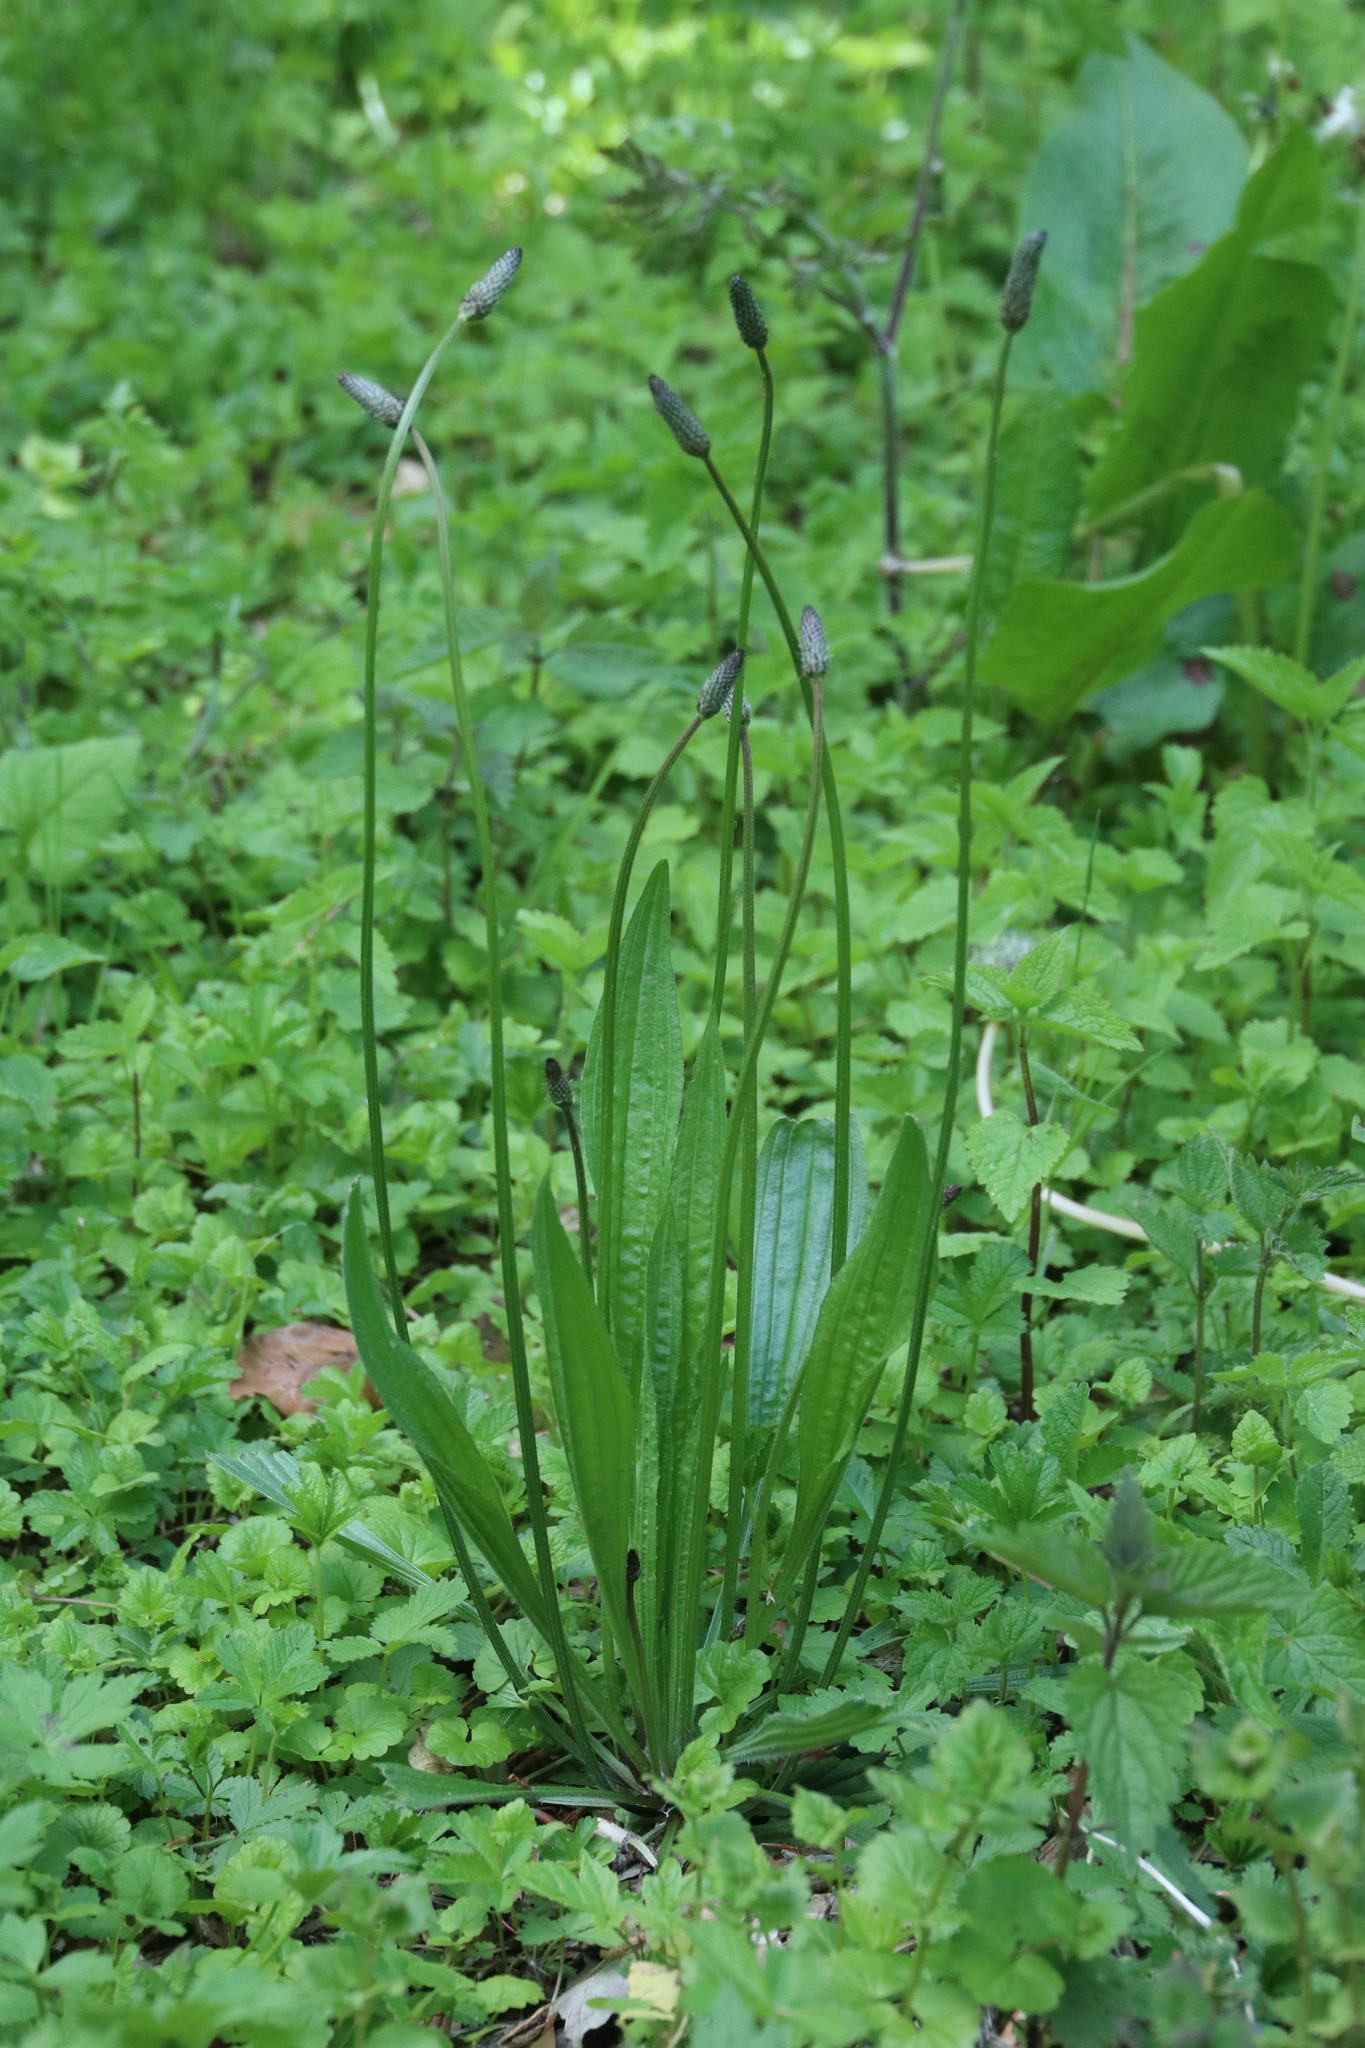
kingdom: Plantae
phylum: Tracheophyta
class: Magnoliopsida
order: Lamiales
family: Plantaginaceae
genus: Plantago
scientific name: Plantago lanceolata
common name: Ribwort plantain
